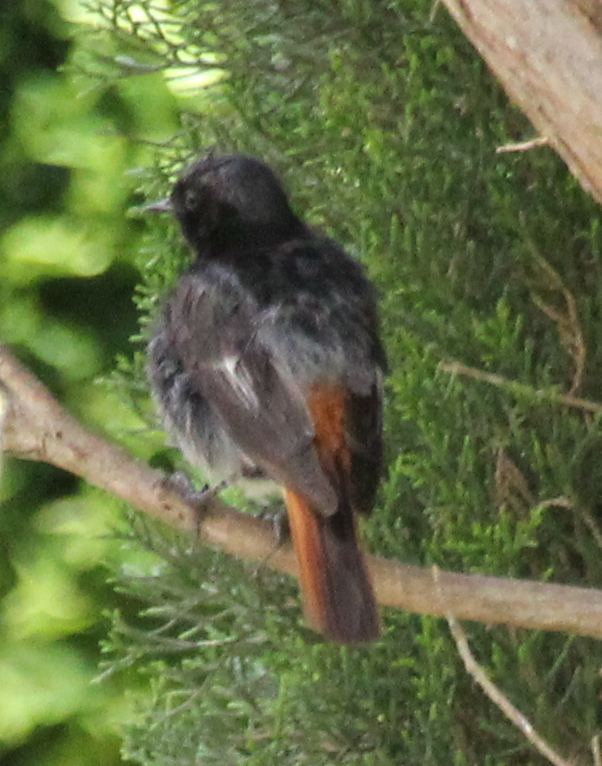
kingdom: Animalia
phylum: Chordata
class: Aves
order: Passeriformes
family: Muscicapidae
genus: Phoenicurus
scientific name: Phoenicurus ochruros
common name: Black redstart
